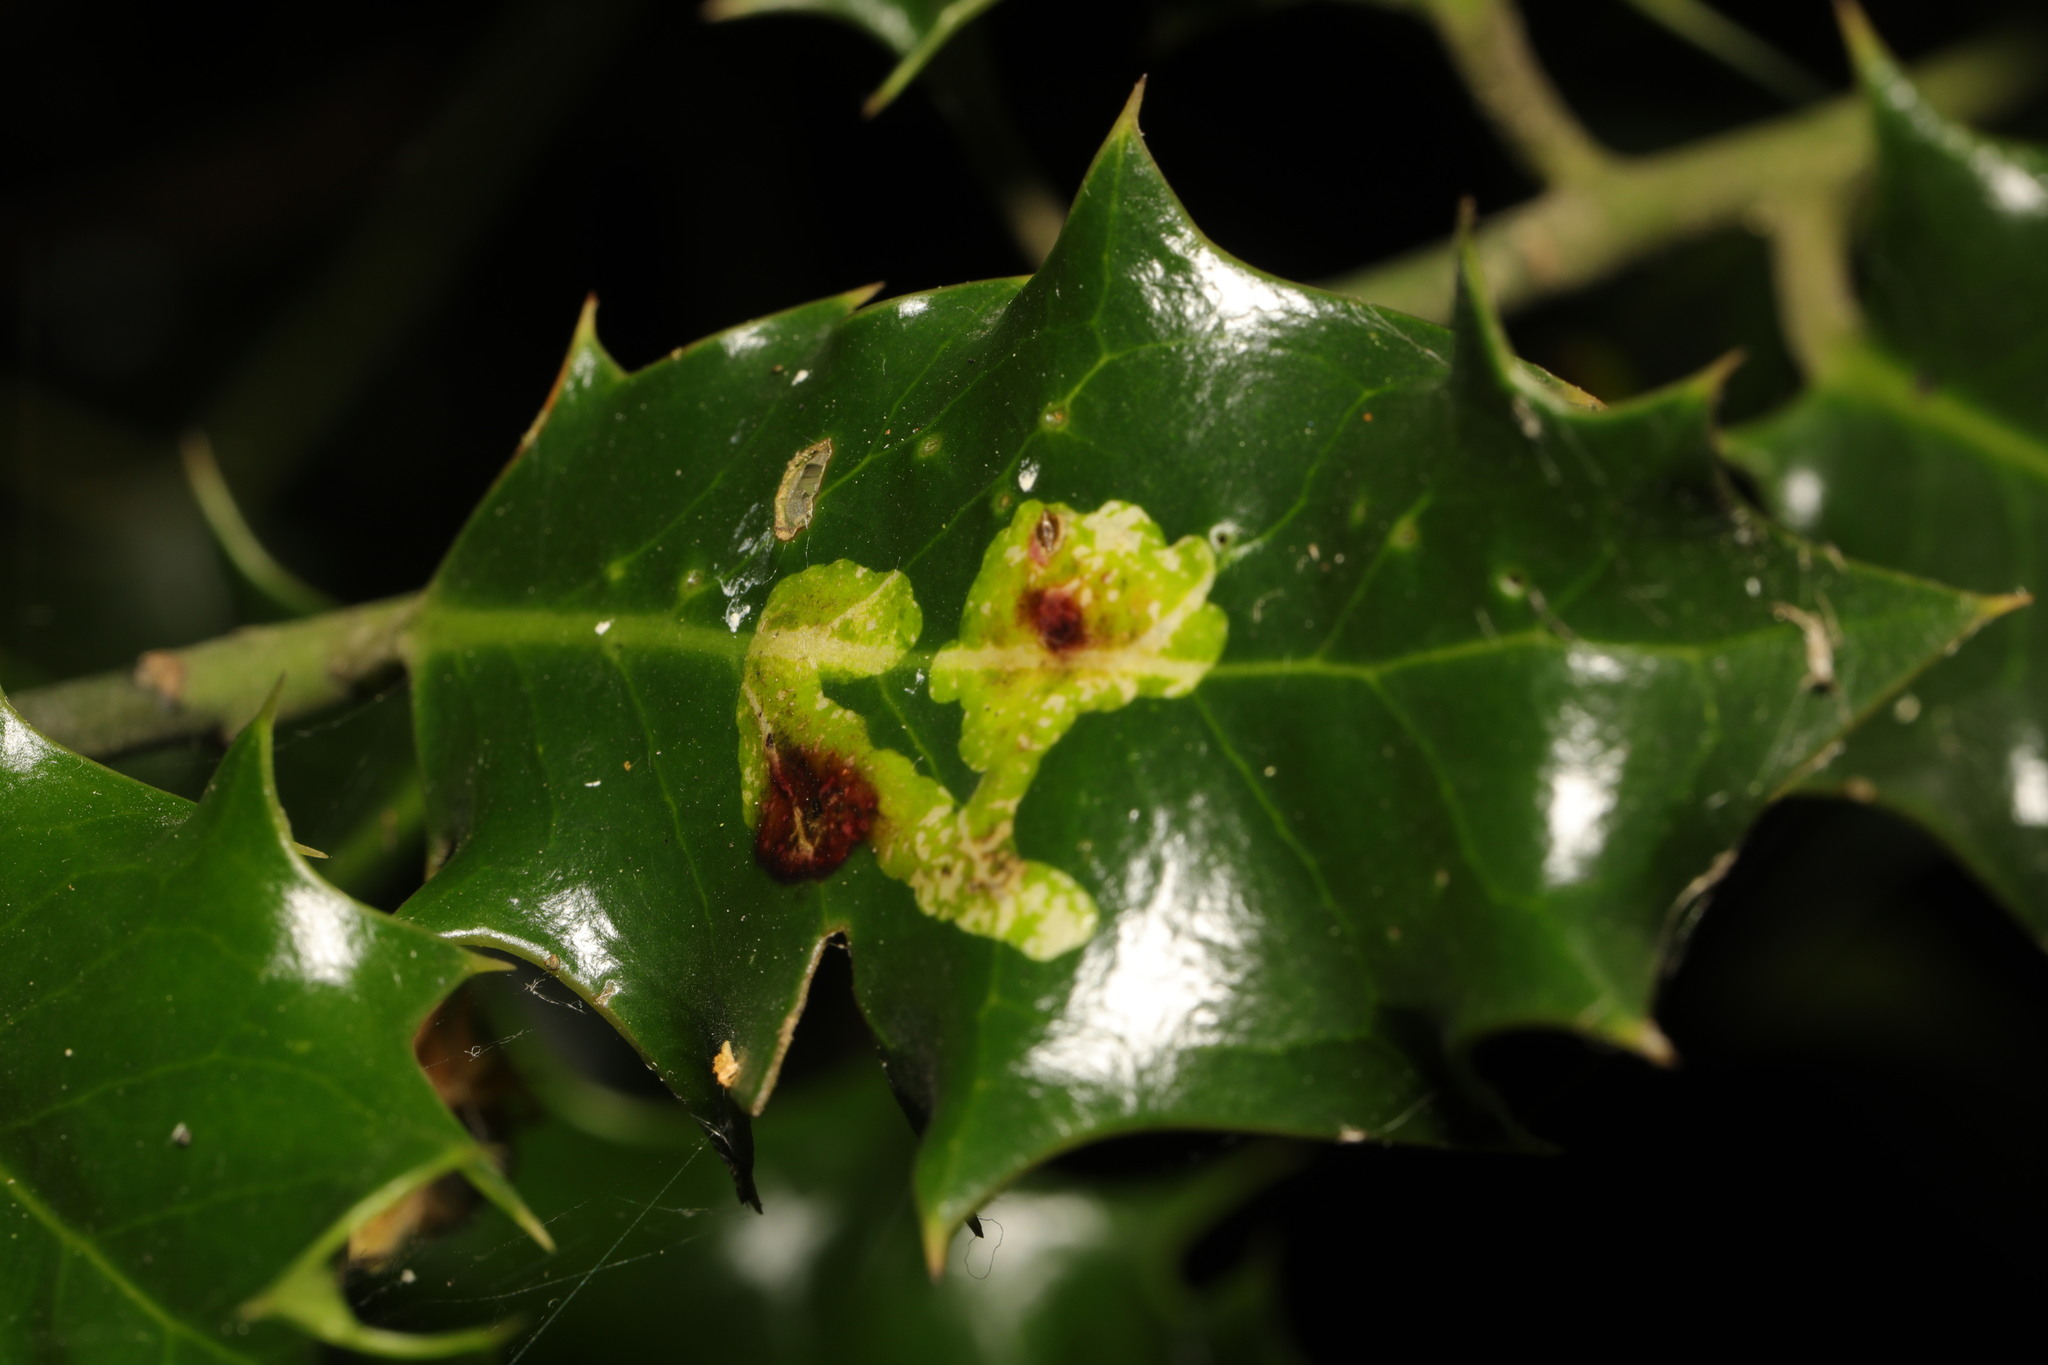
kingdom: Animalia
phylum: Arthropoda
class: Insecta
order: Diptera
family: Agromyzidae
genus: Phytomyza
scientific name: Phytomyza ilicis
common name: Holly leafminer
